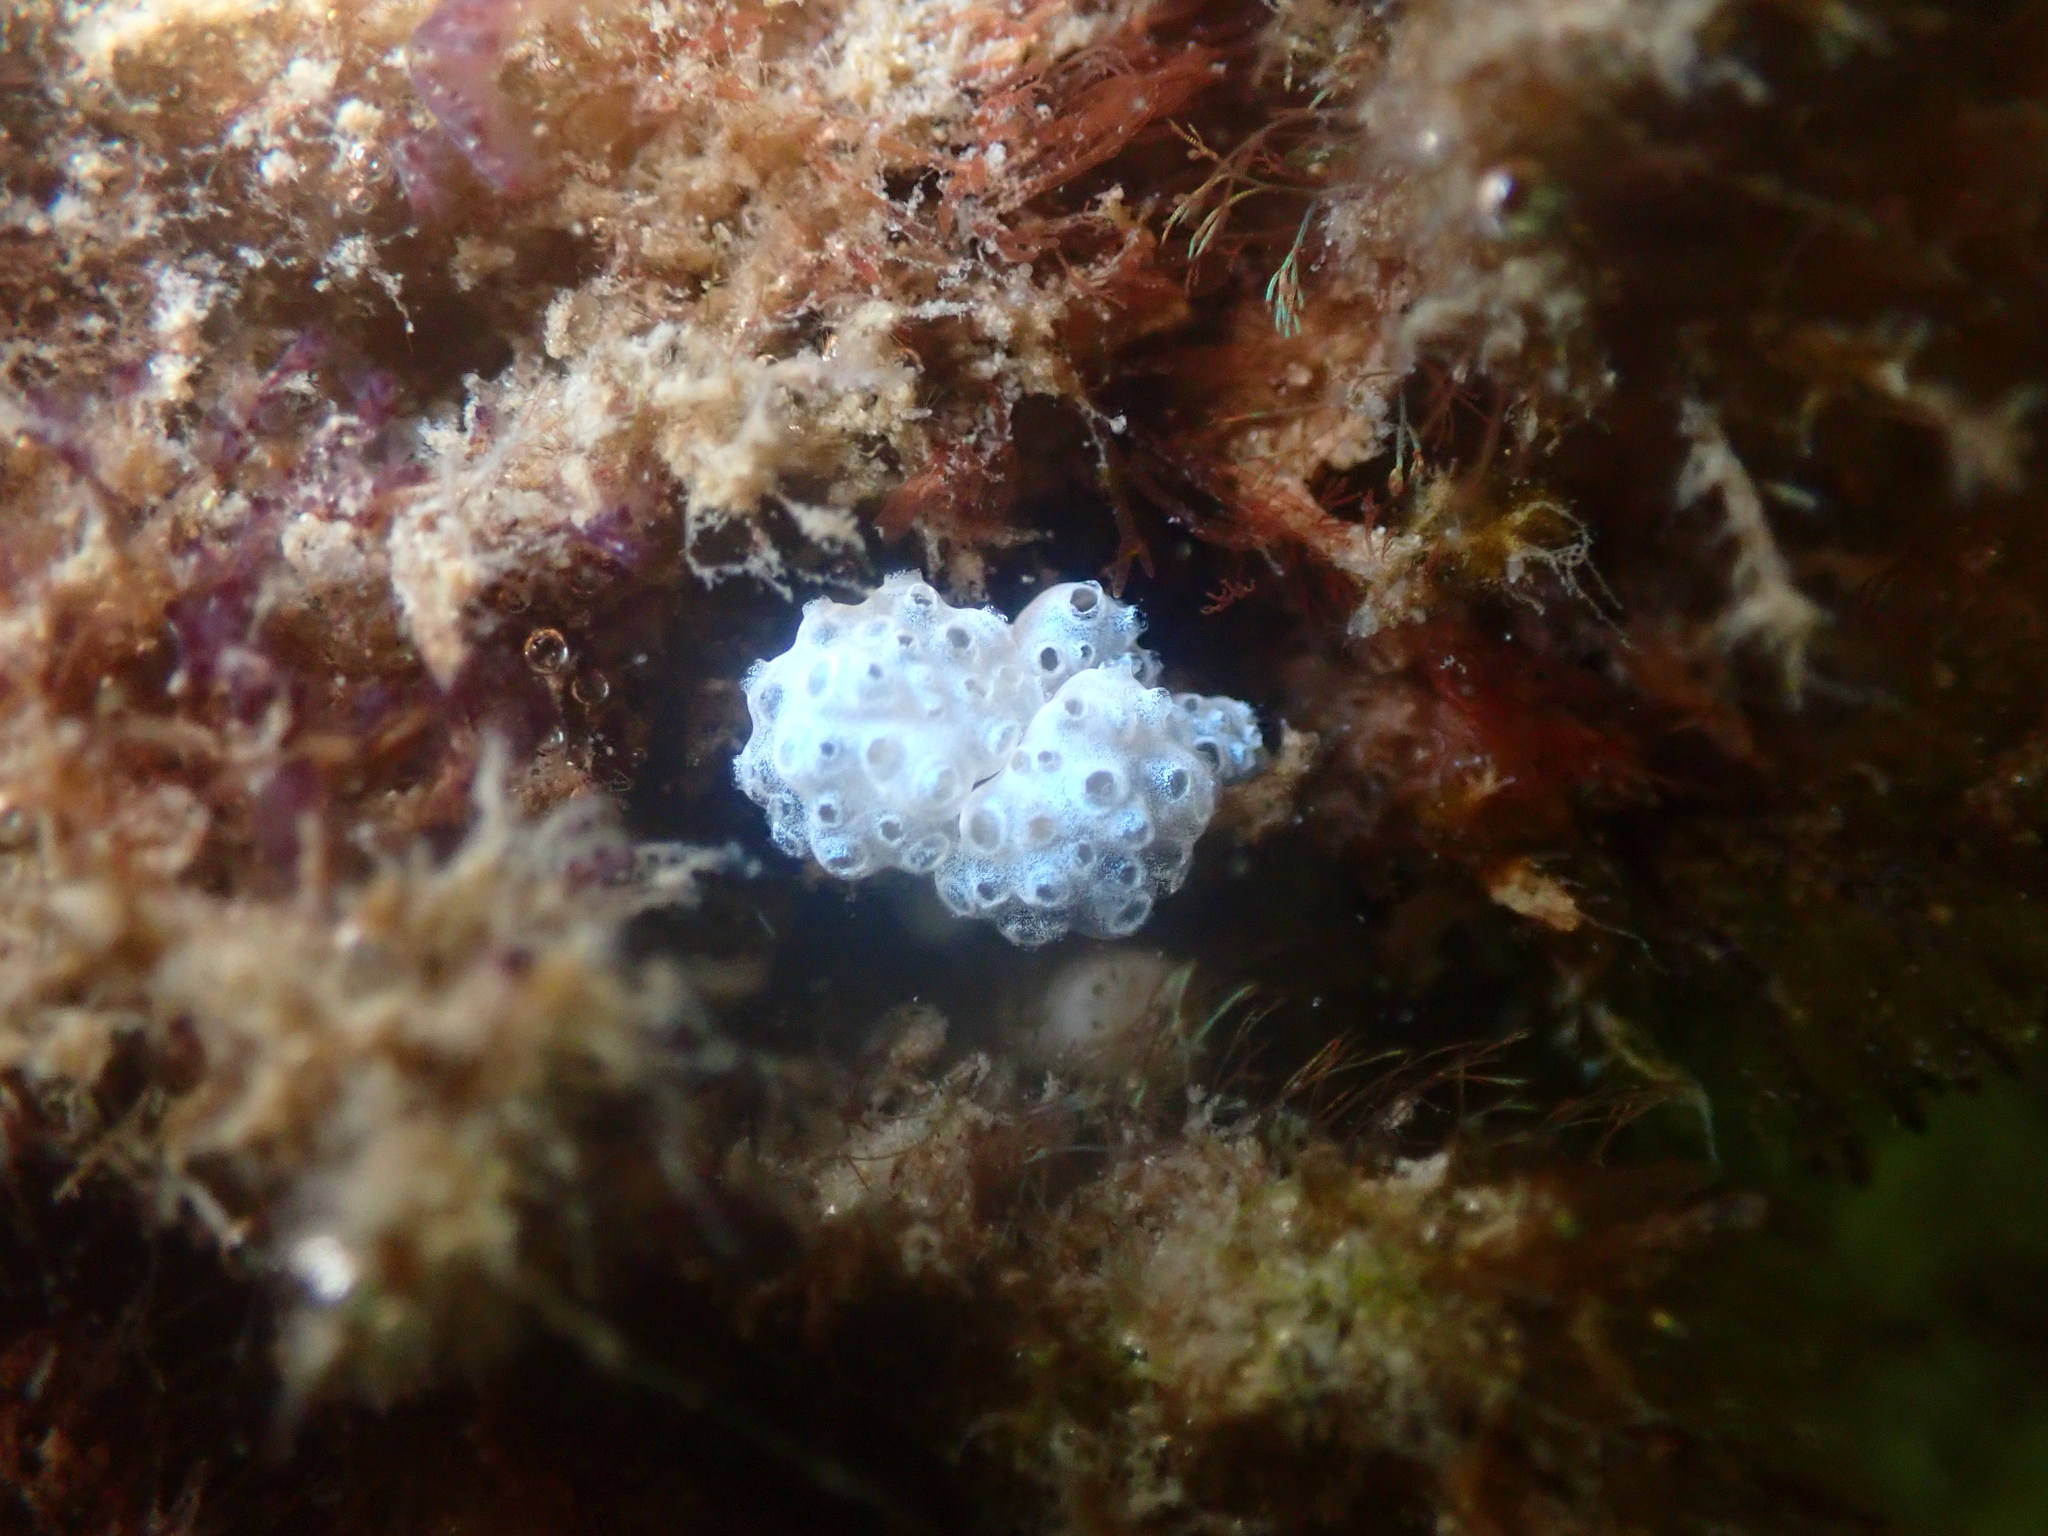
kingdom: Animalia
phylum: Chordata
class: Ascidiacea
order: Aplousobranchia
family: Polycitoridae
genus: Eudistoma
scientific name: Eudistoma elongatum
